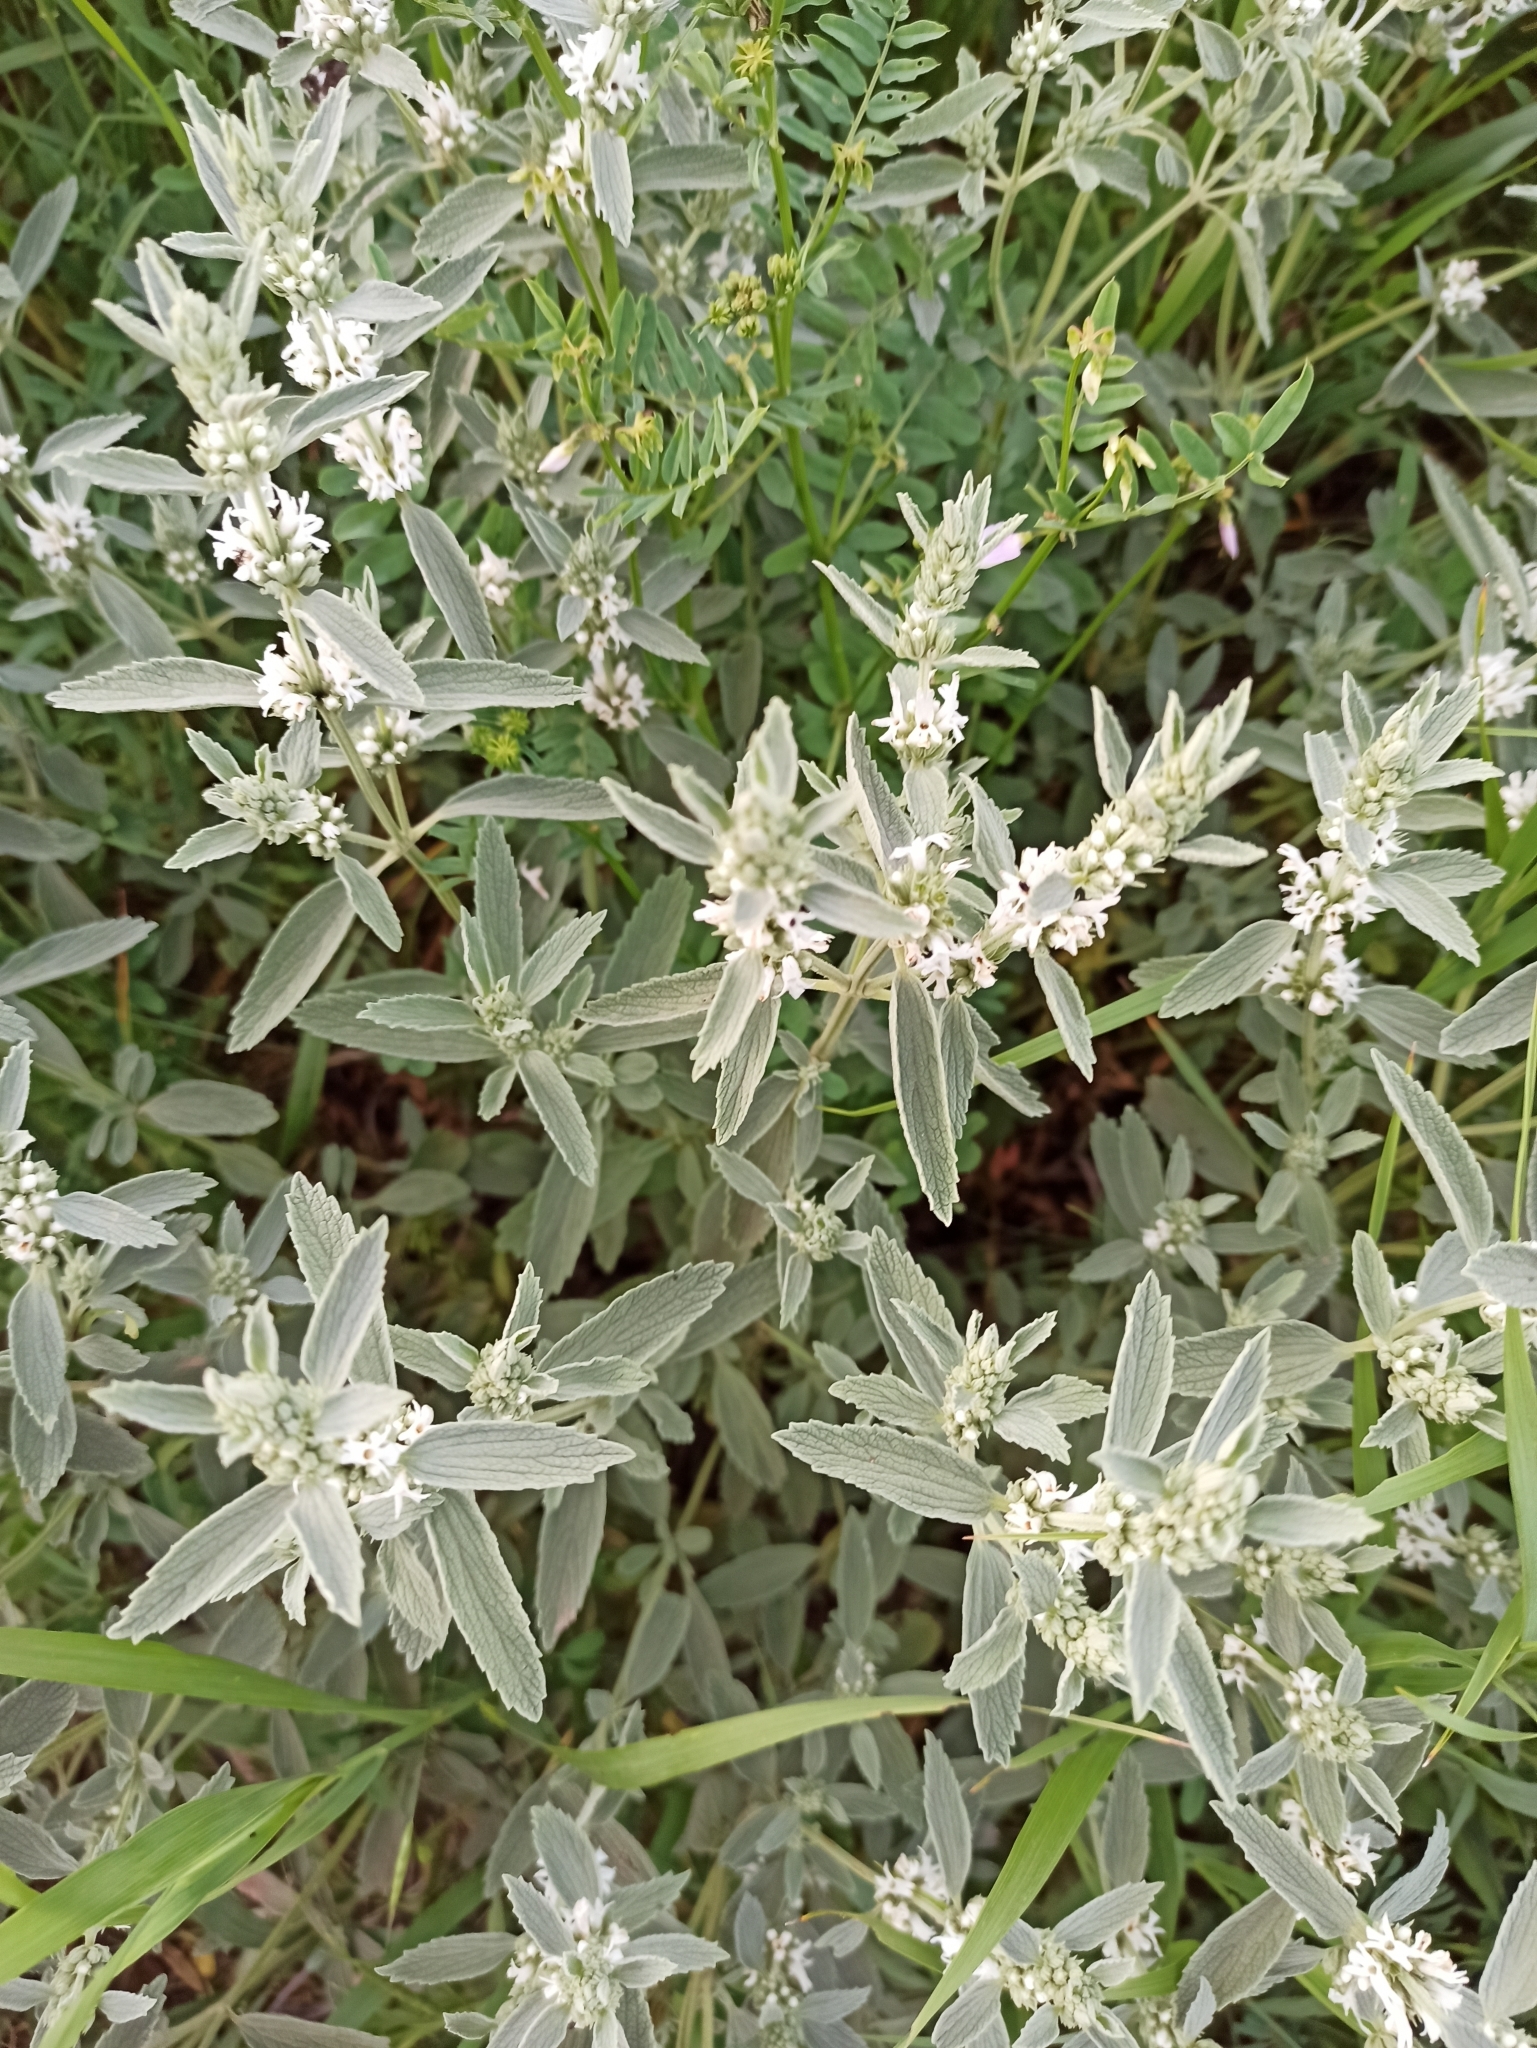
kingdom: Plantae
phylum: Tracheophyta
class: Magnoliopsida
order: Lamiales
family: Lamiaceae
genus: Marrubium
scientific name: Marrubium peregrinum
